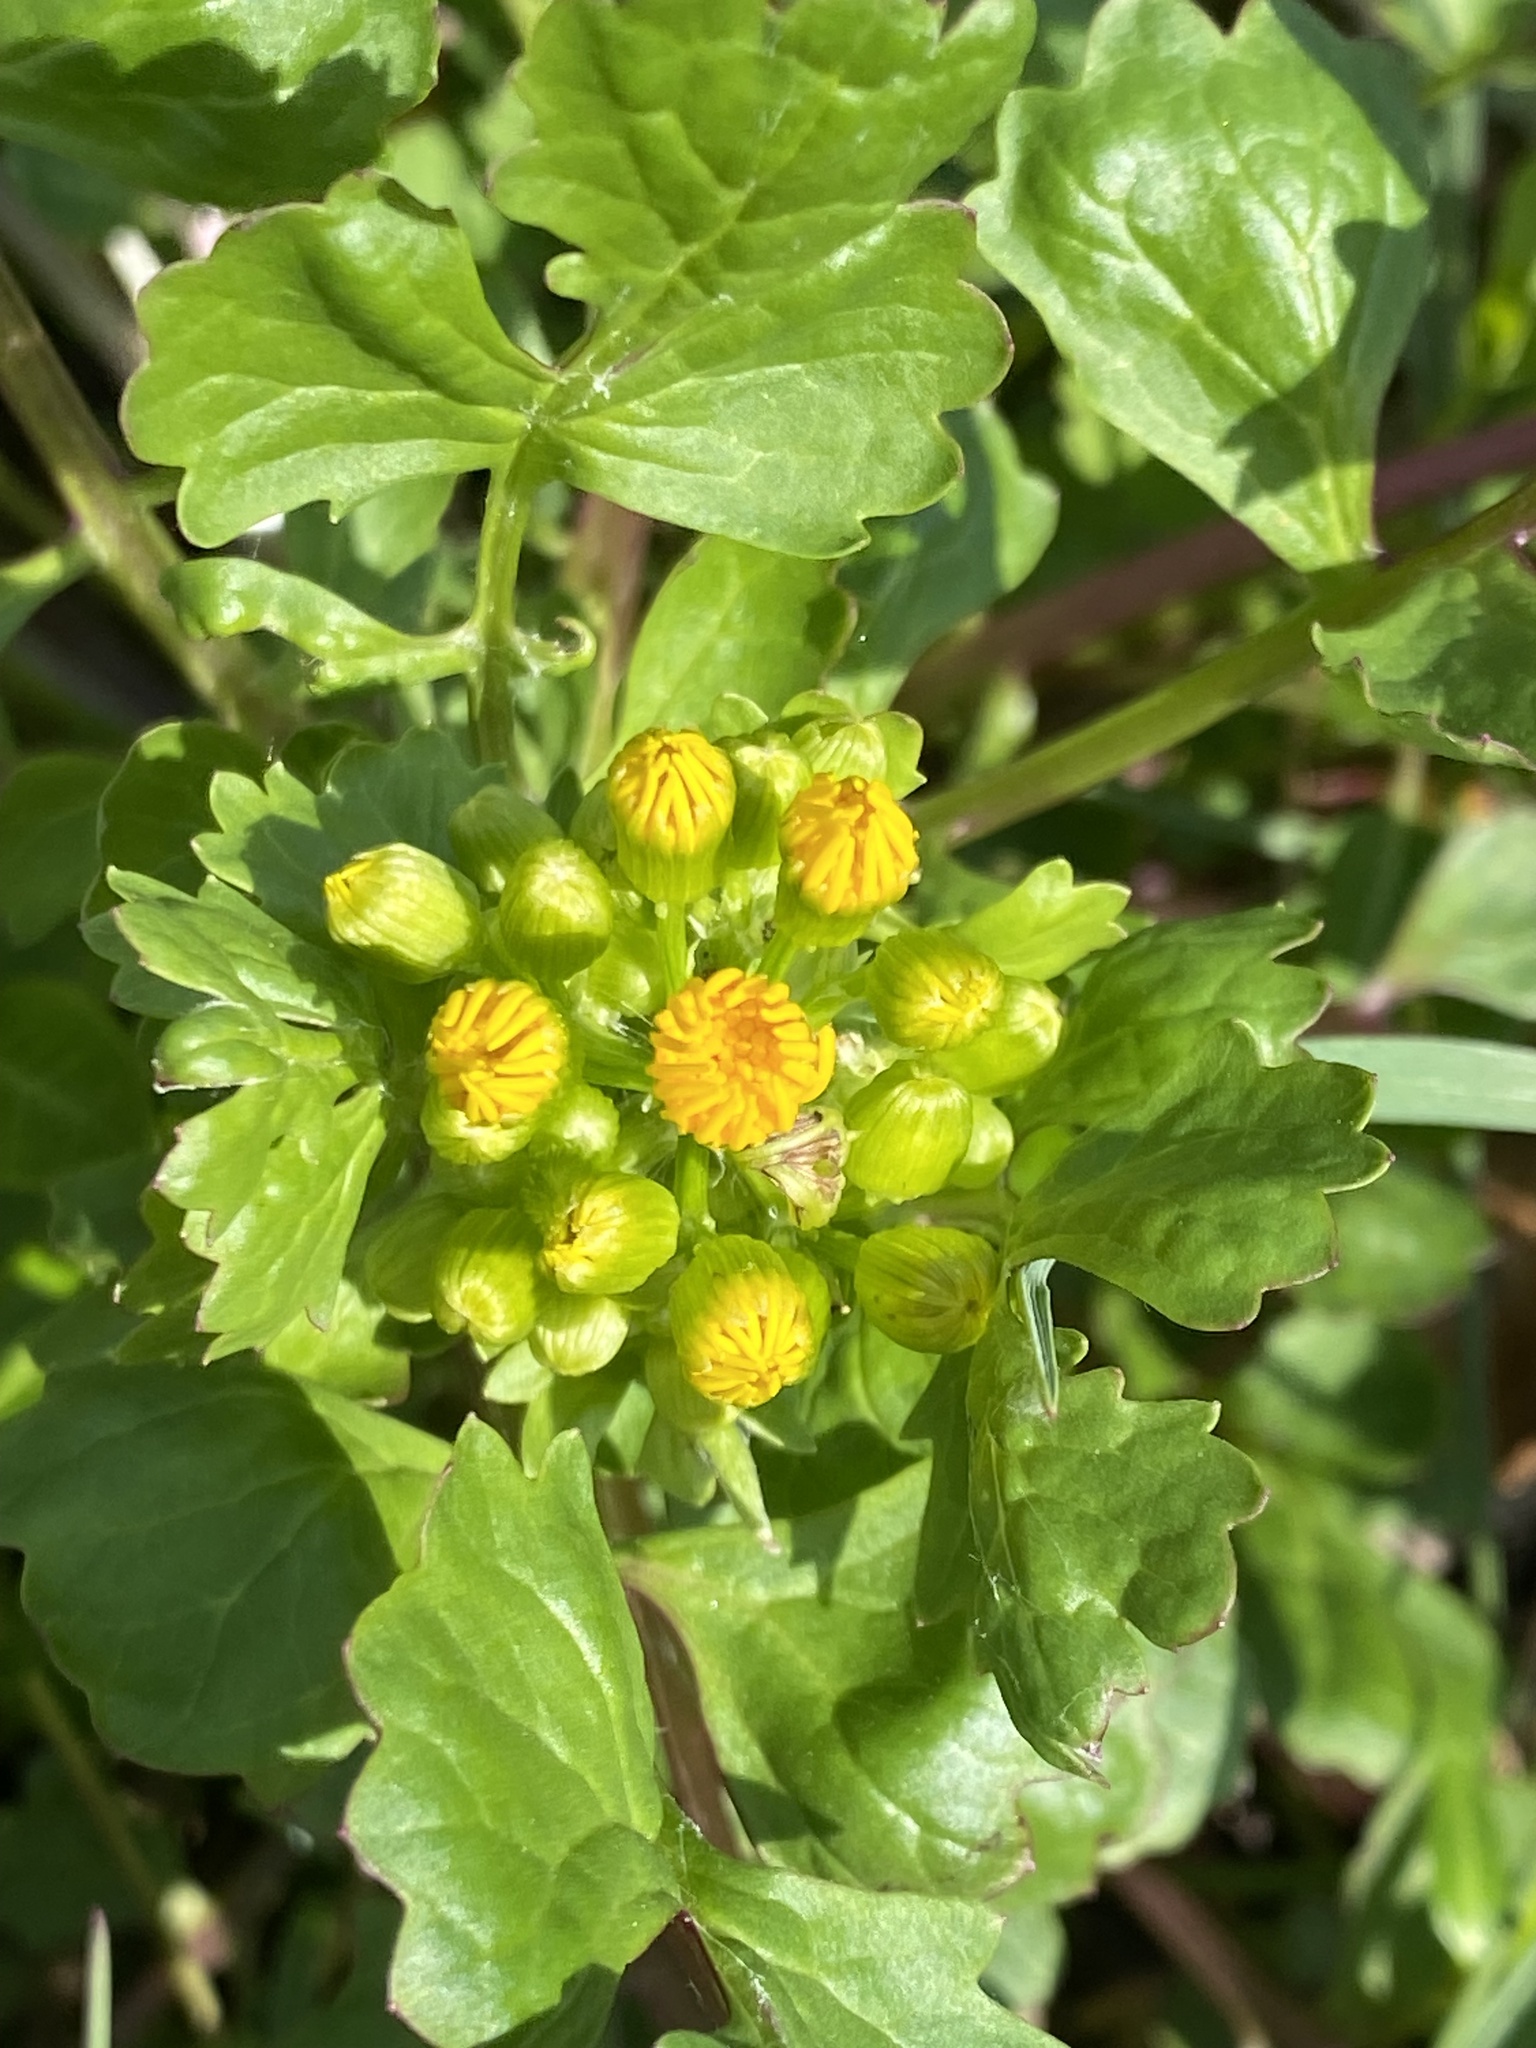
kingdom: Plantae
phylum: Tracheophyta
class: Magnoliopsida
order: Asterales
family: Asteraceae
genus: Packera
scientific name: Packera glabella
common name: Butterweed
